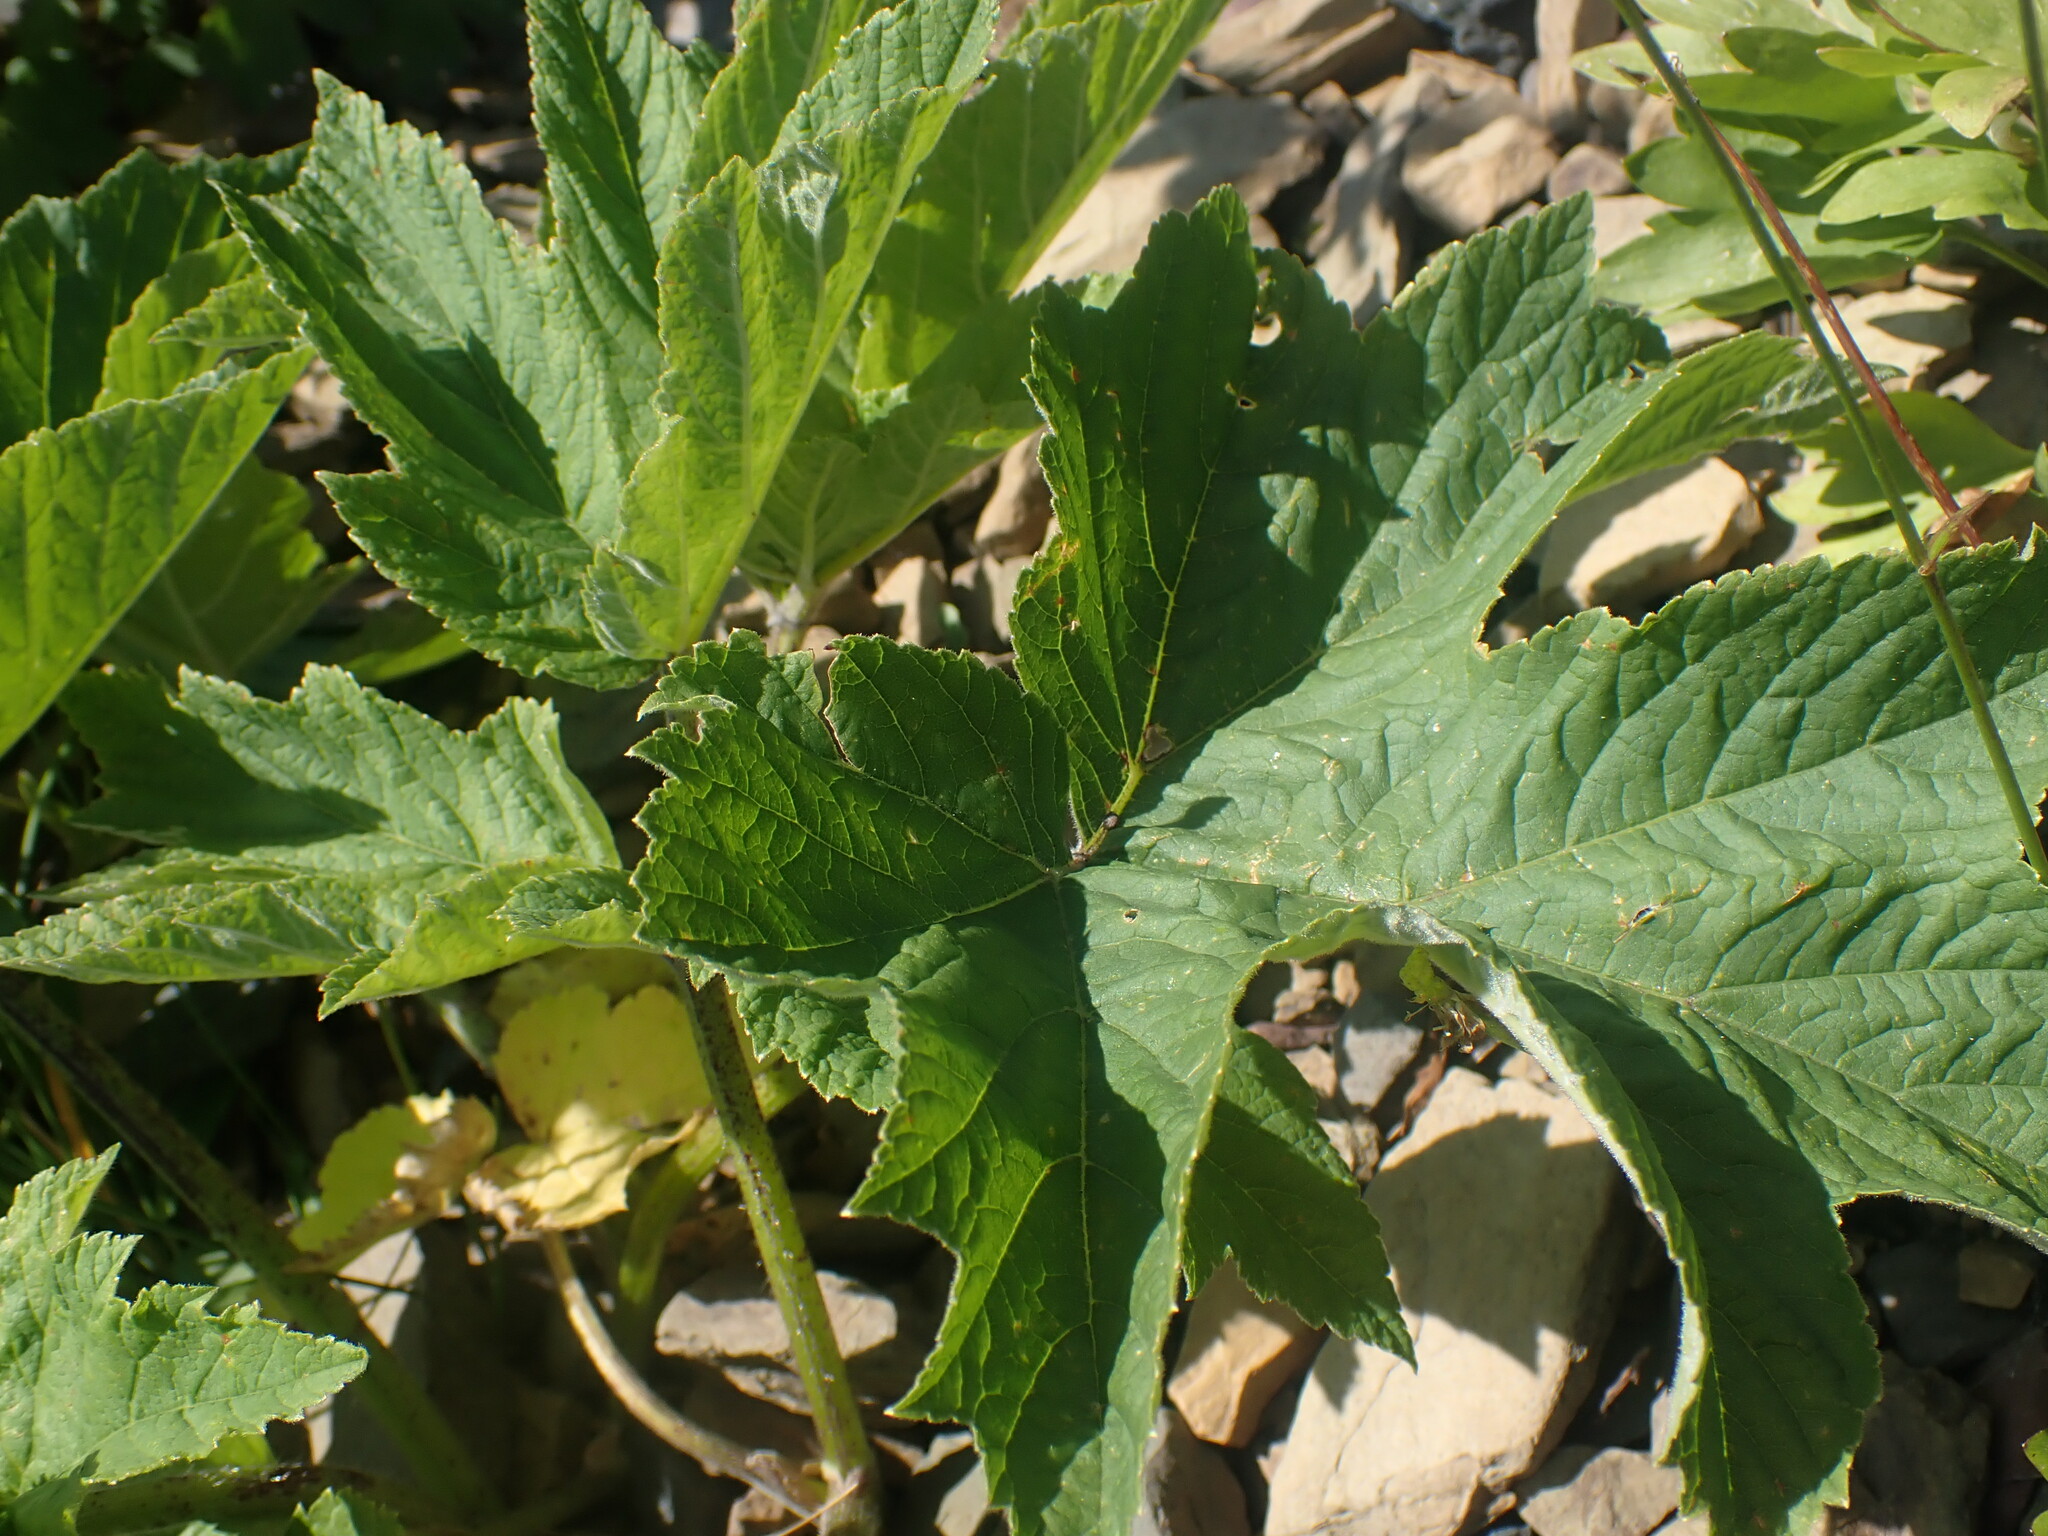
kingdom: Plantae
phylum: Tracheophyta
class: Magnoliopsida
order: Apiales
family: Apiaceae
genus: Heracleum
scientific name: Heracleum maximum
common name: American cow parsnip
